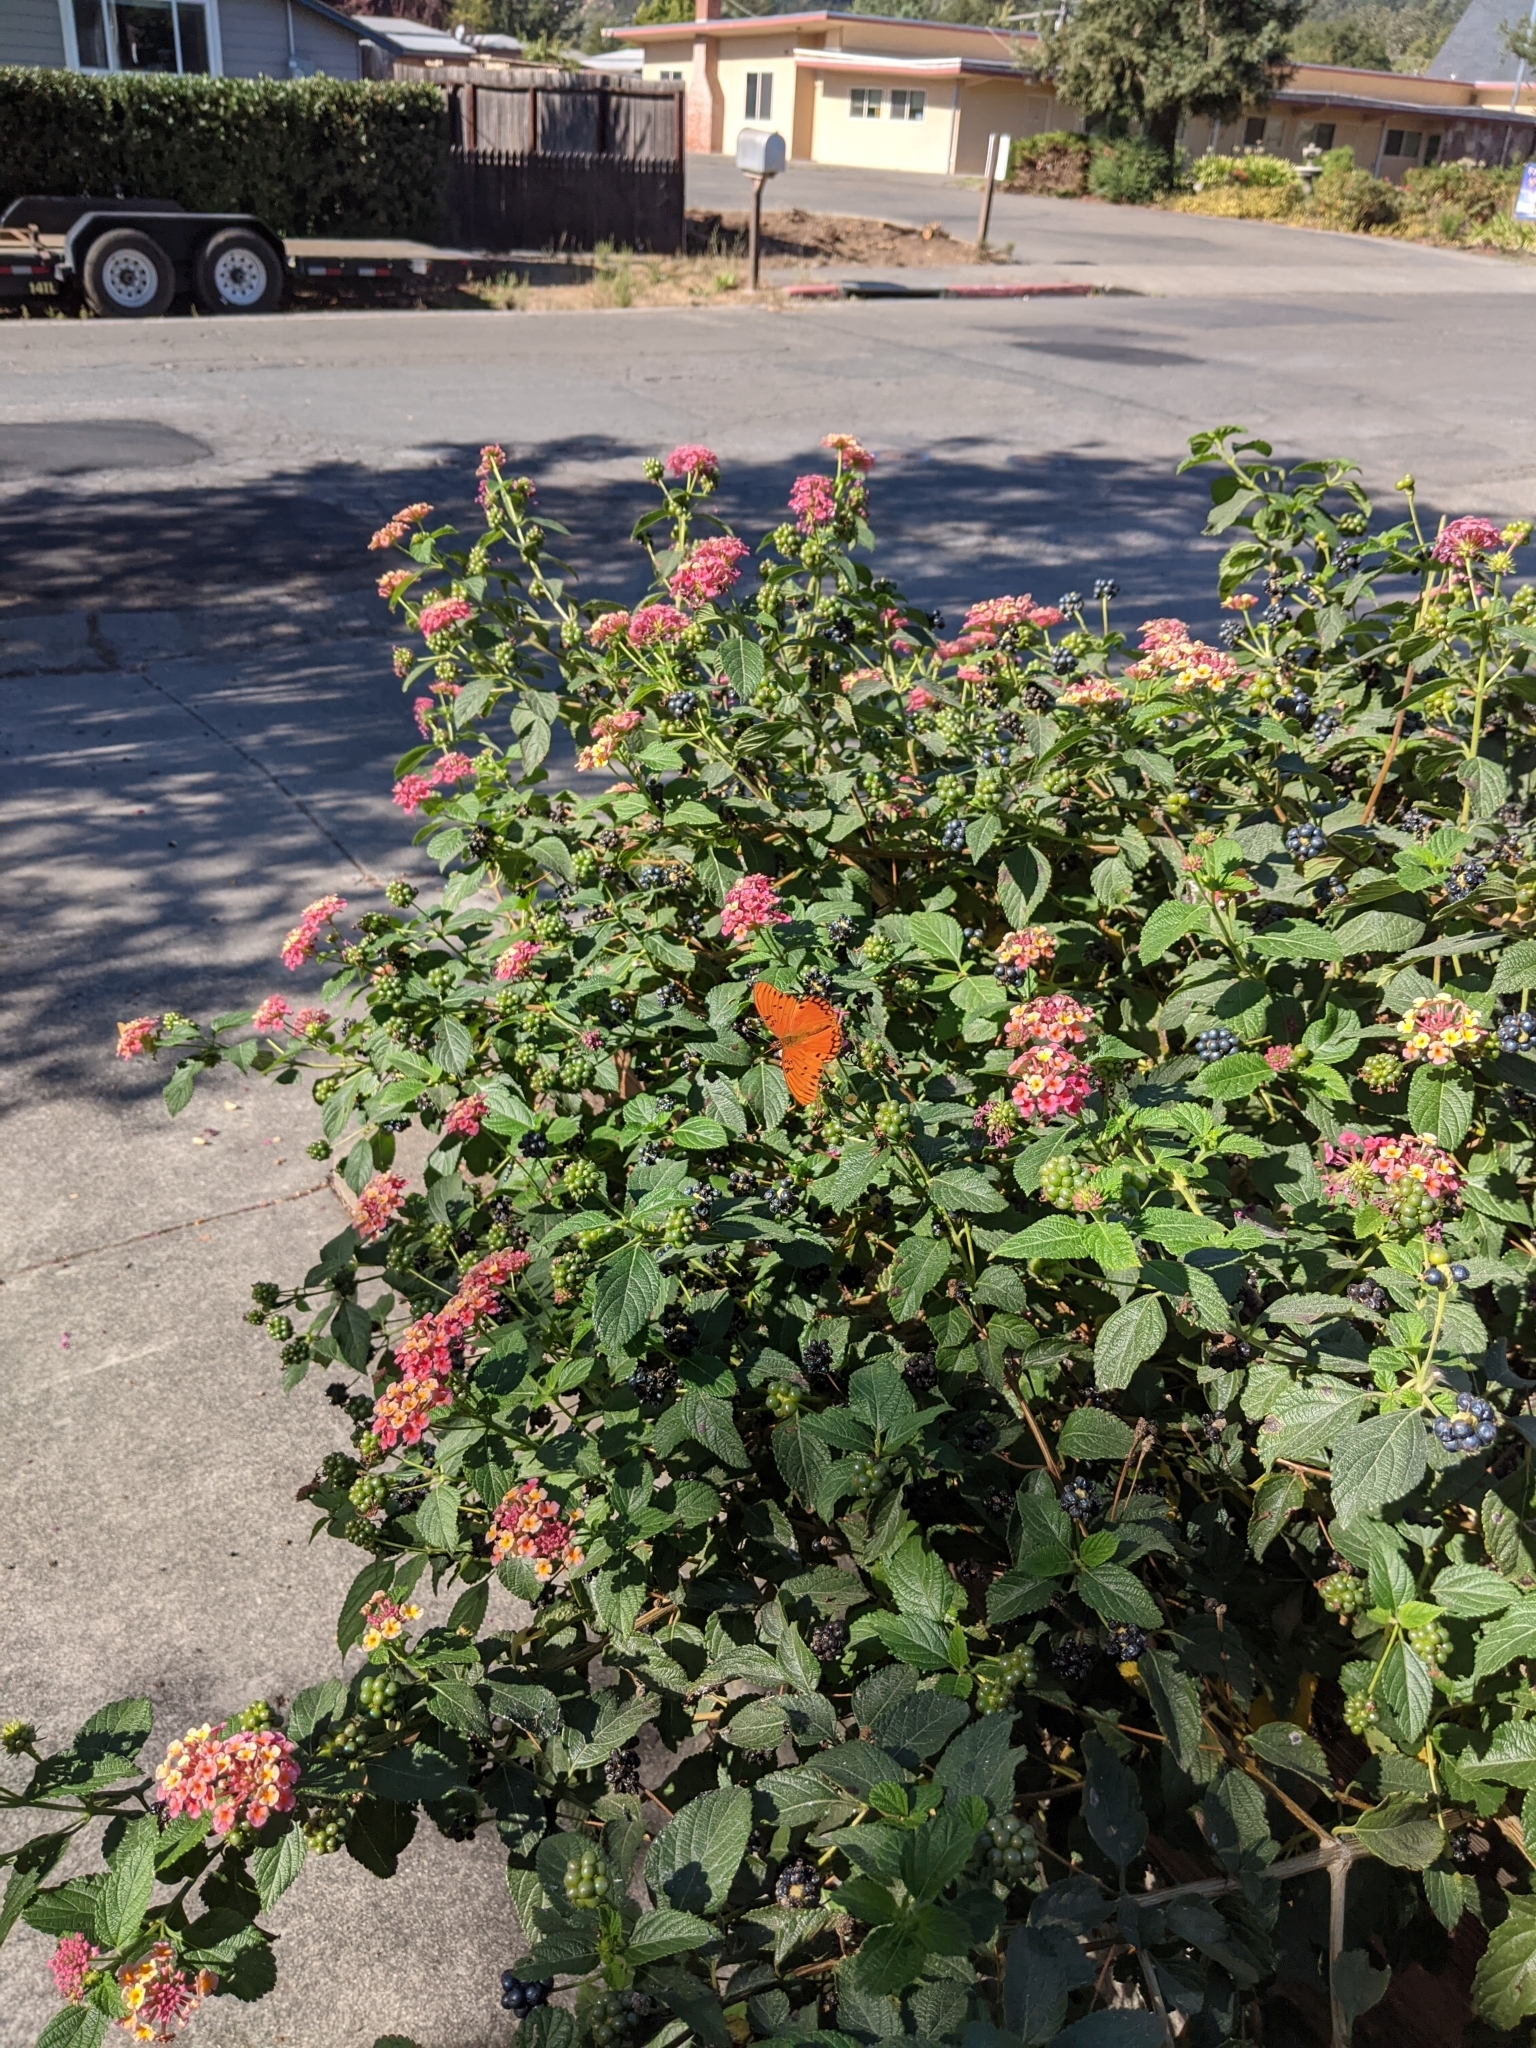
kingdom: Animalia
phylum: Arthropoda
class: Insecta
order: Lepidoptera
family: Nymphalidae
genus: Dione
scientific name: Dione vanillae
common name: Gulf fritillary
